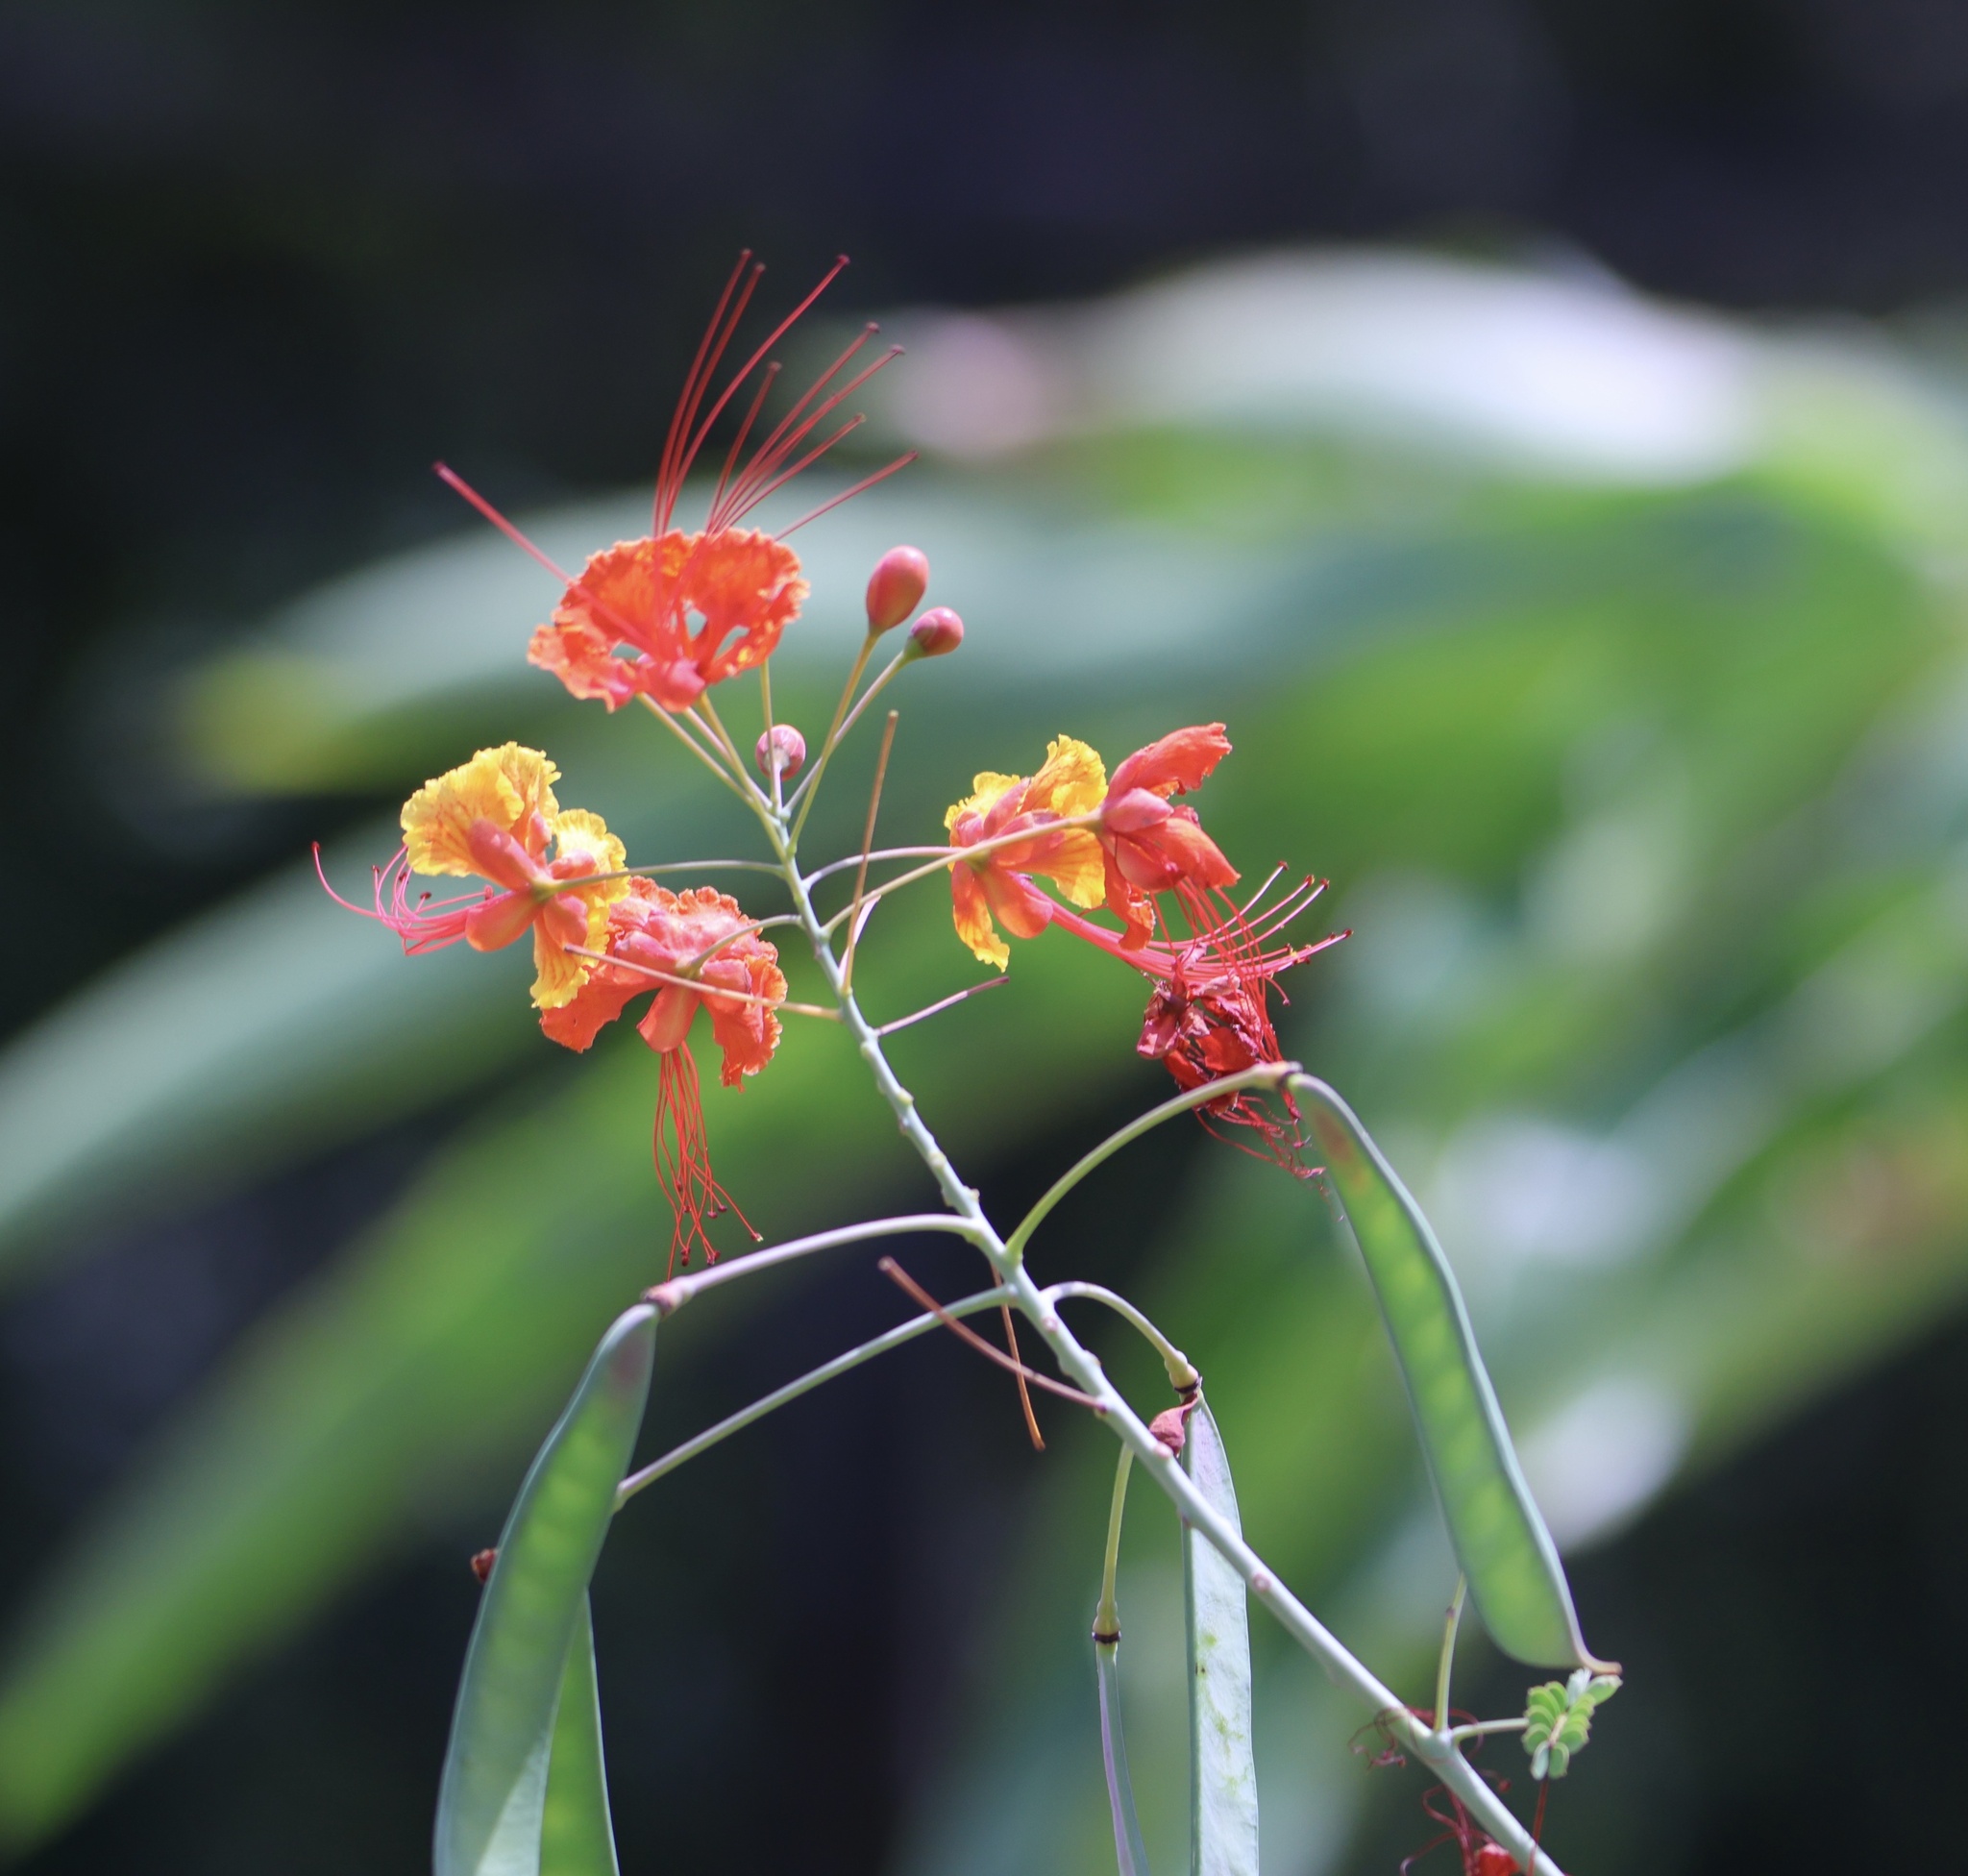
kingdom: Plantae
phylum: Tracheophyta
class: Magnoliopsida
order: Fabales
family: Fabaceae
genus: Caesalpinia
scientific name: Caesalpinia pulcherrima
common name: Pride-of-barbados
